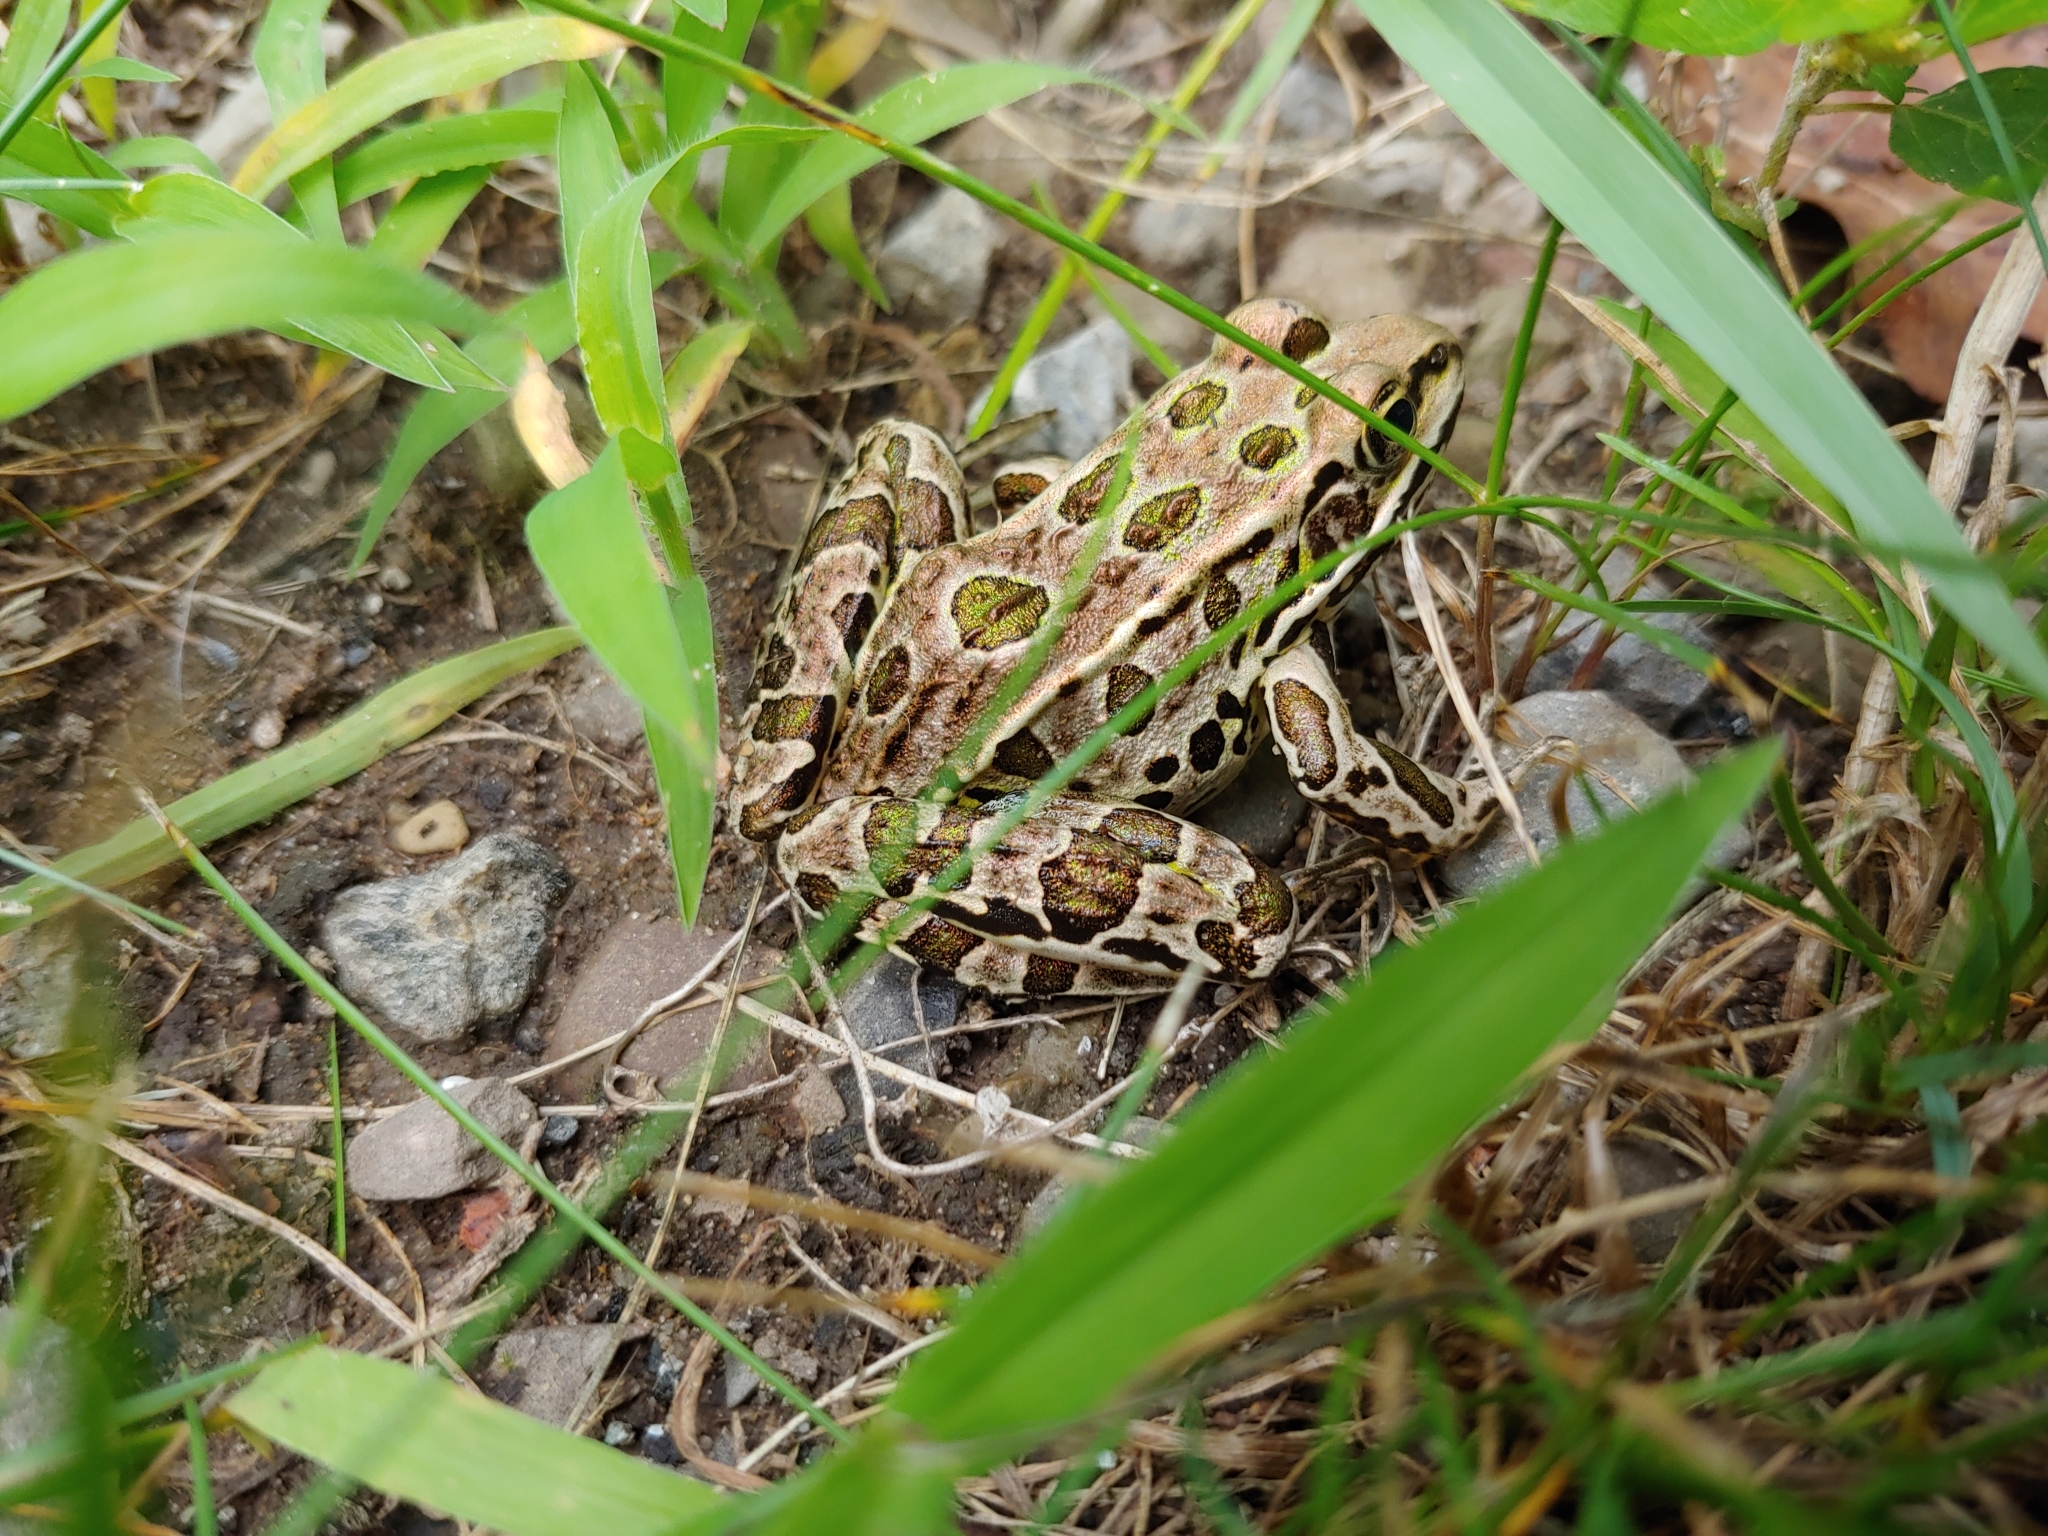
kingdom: Animalia
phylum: Chordata
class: Amphibia
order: Anura
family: Ranidae
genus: Lithobates
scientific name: Lithobates pipiens
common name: Northern leopard frog
